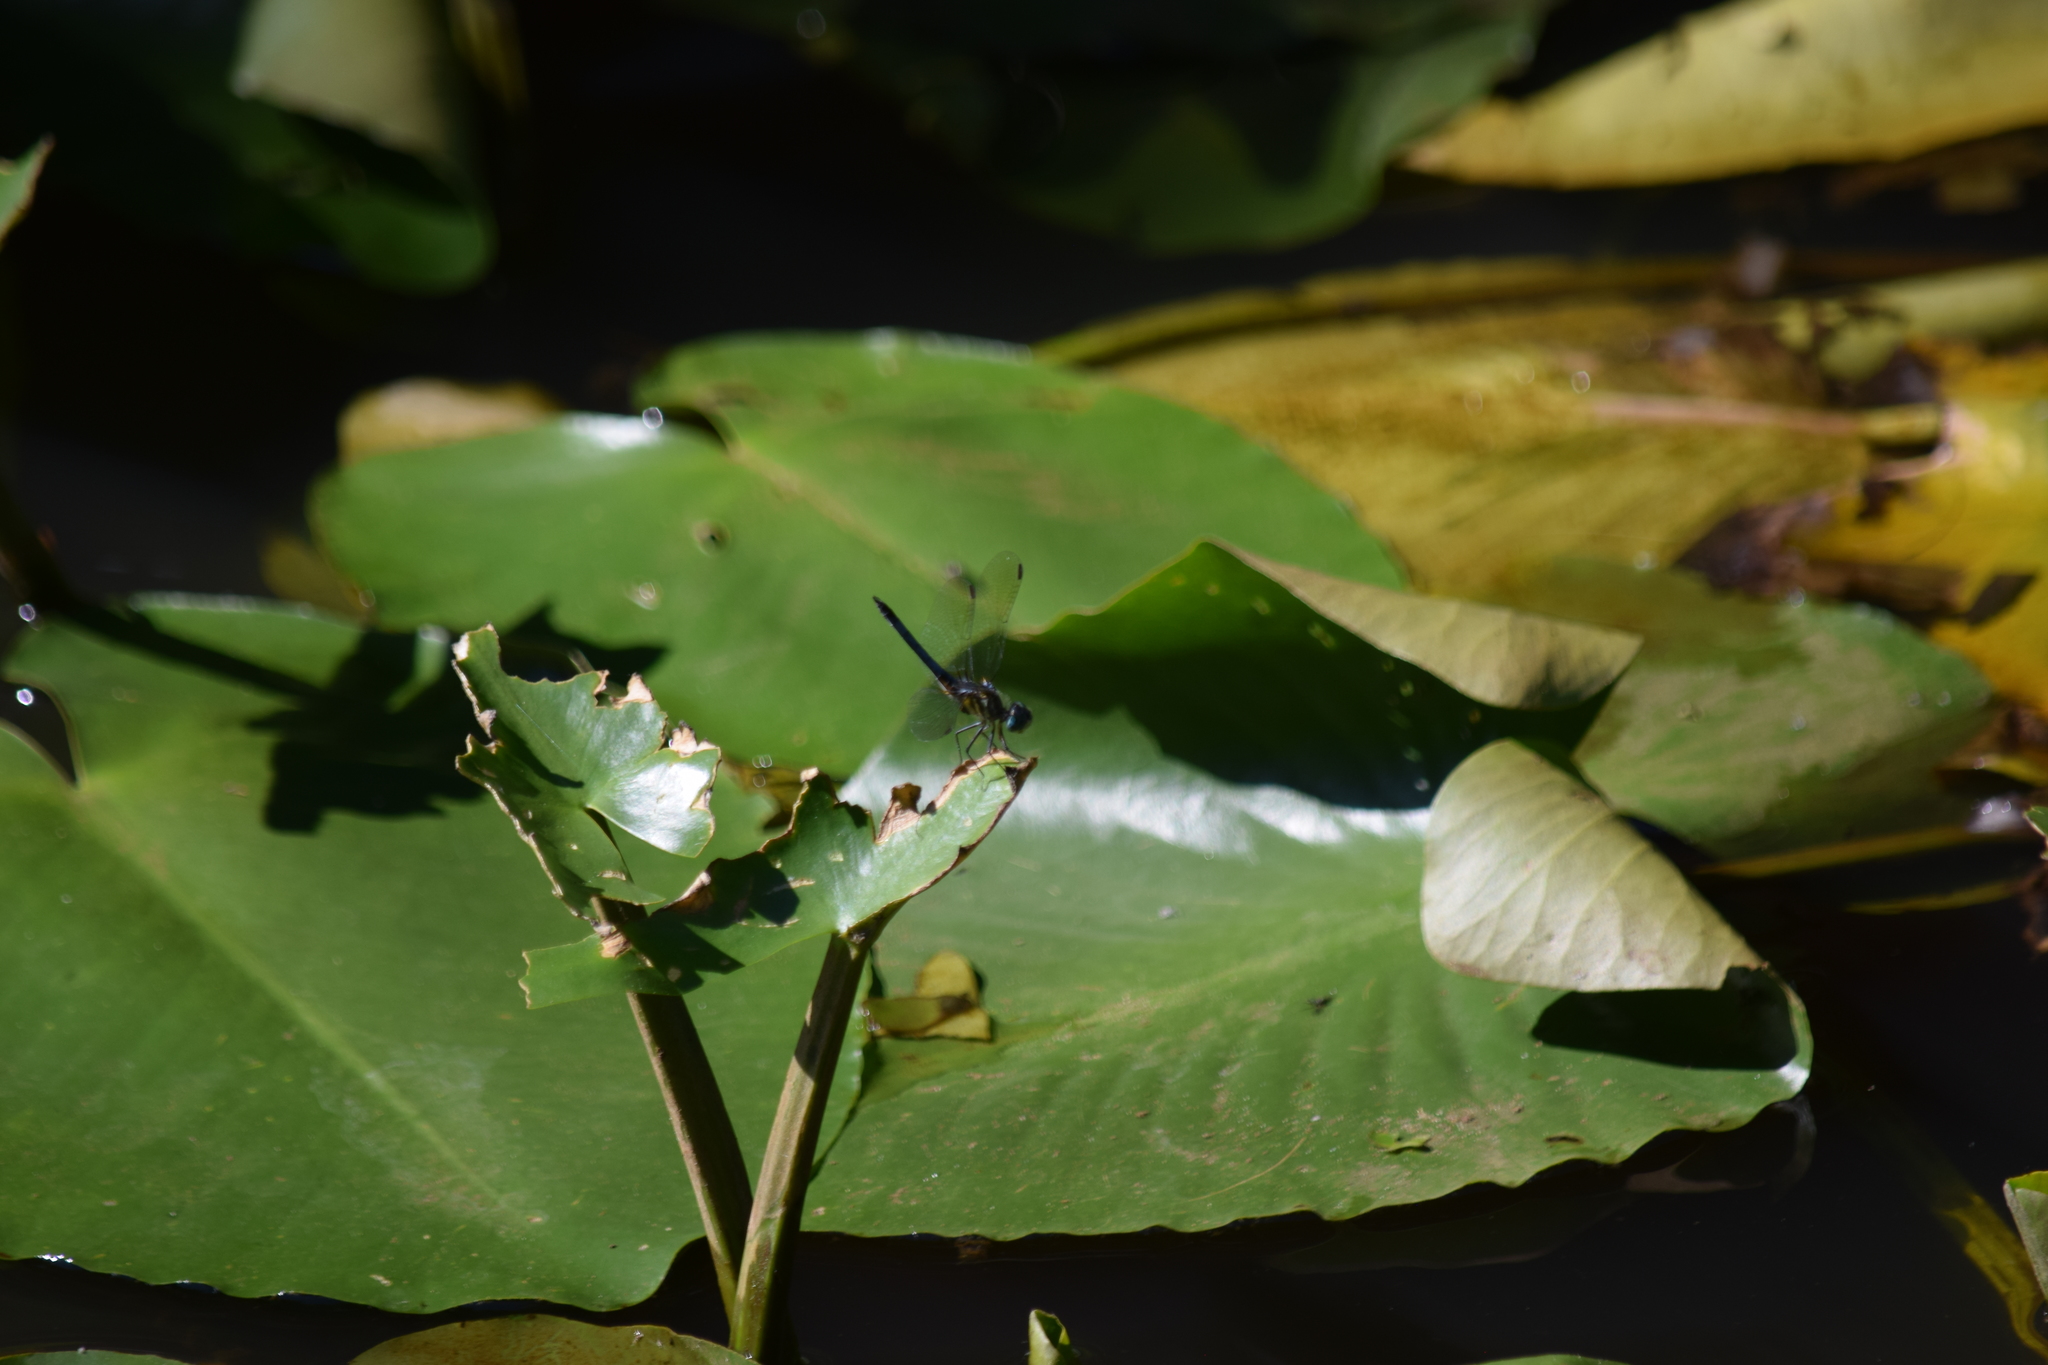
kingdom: Animalia
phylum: Arthropoda
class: Insecta
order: Odonata
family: Libellulidae
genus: Pachydiplax
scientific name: Pachydiplax longipennis
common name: Blue dasher
